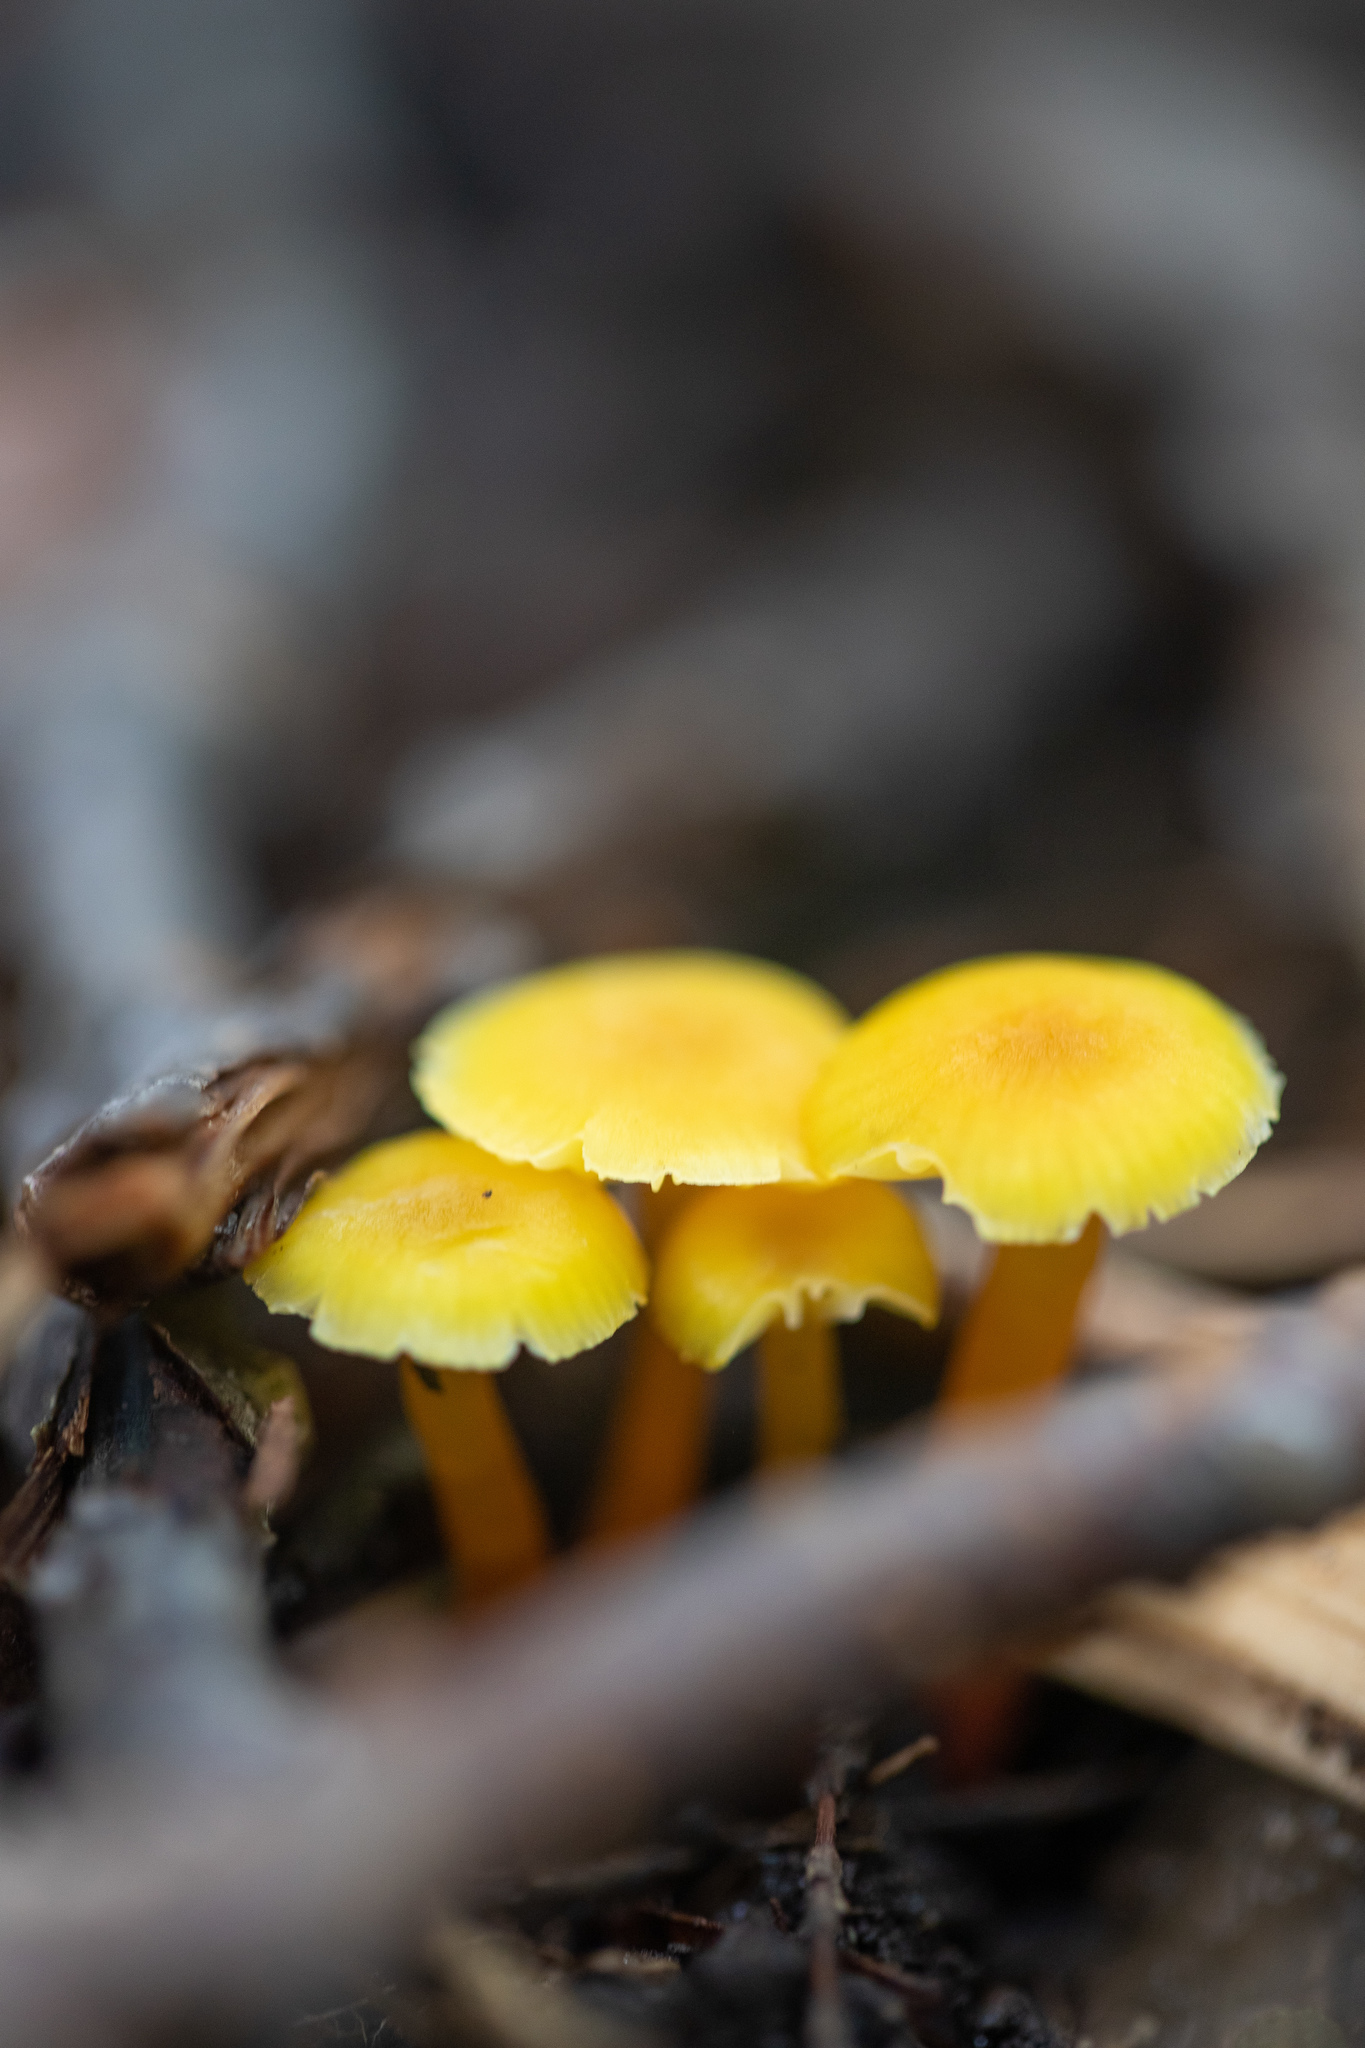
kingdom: Fungi
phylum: Basidiomycota
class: Agaricomycetes
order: Agaricales
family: Hygrophoraceae
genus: Hygrocybe
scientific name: Hygrocybe parvula
